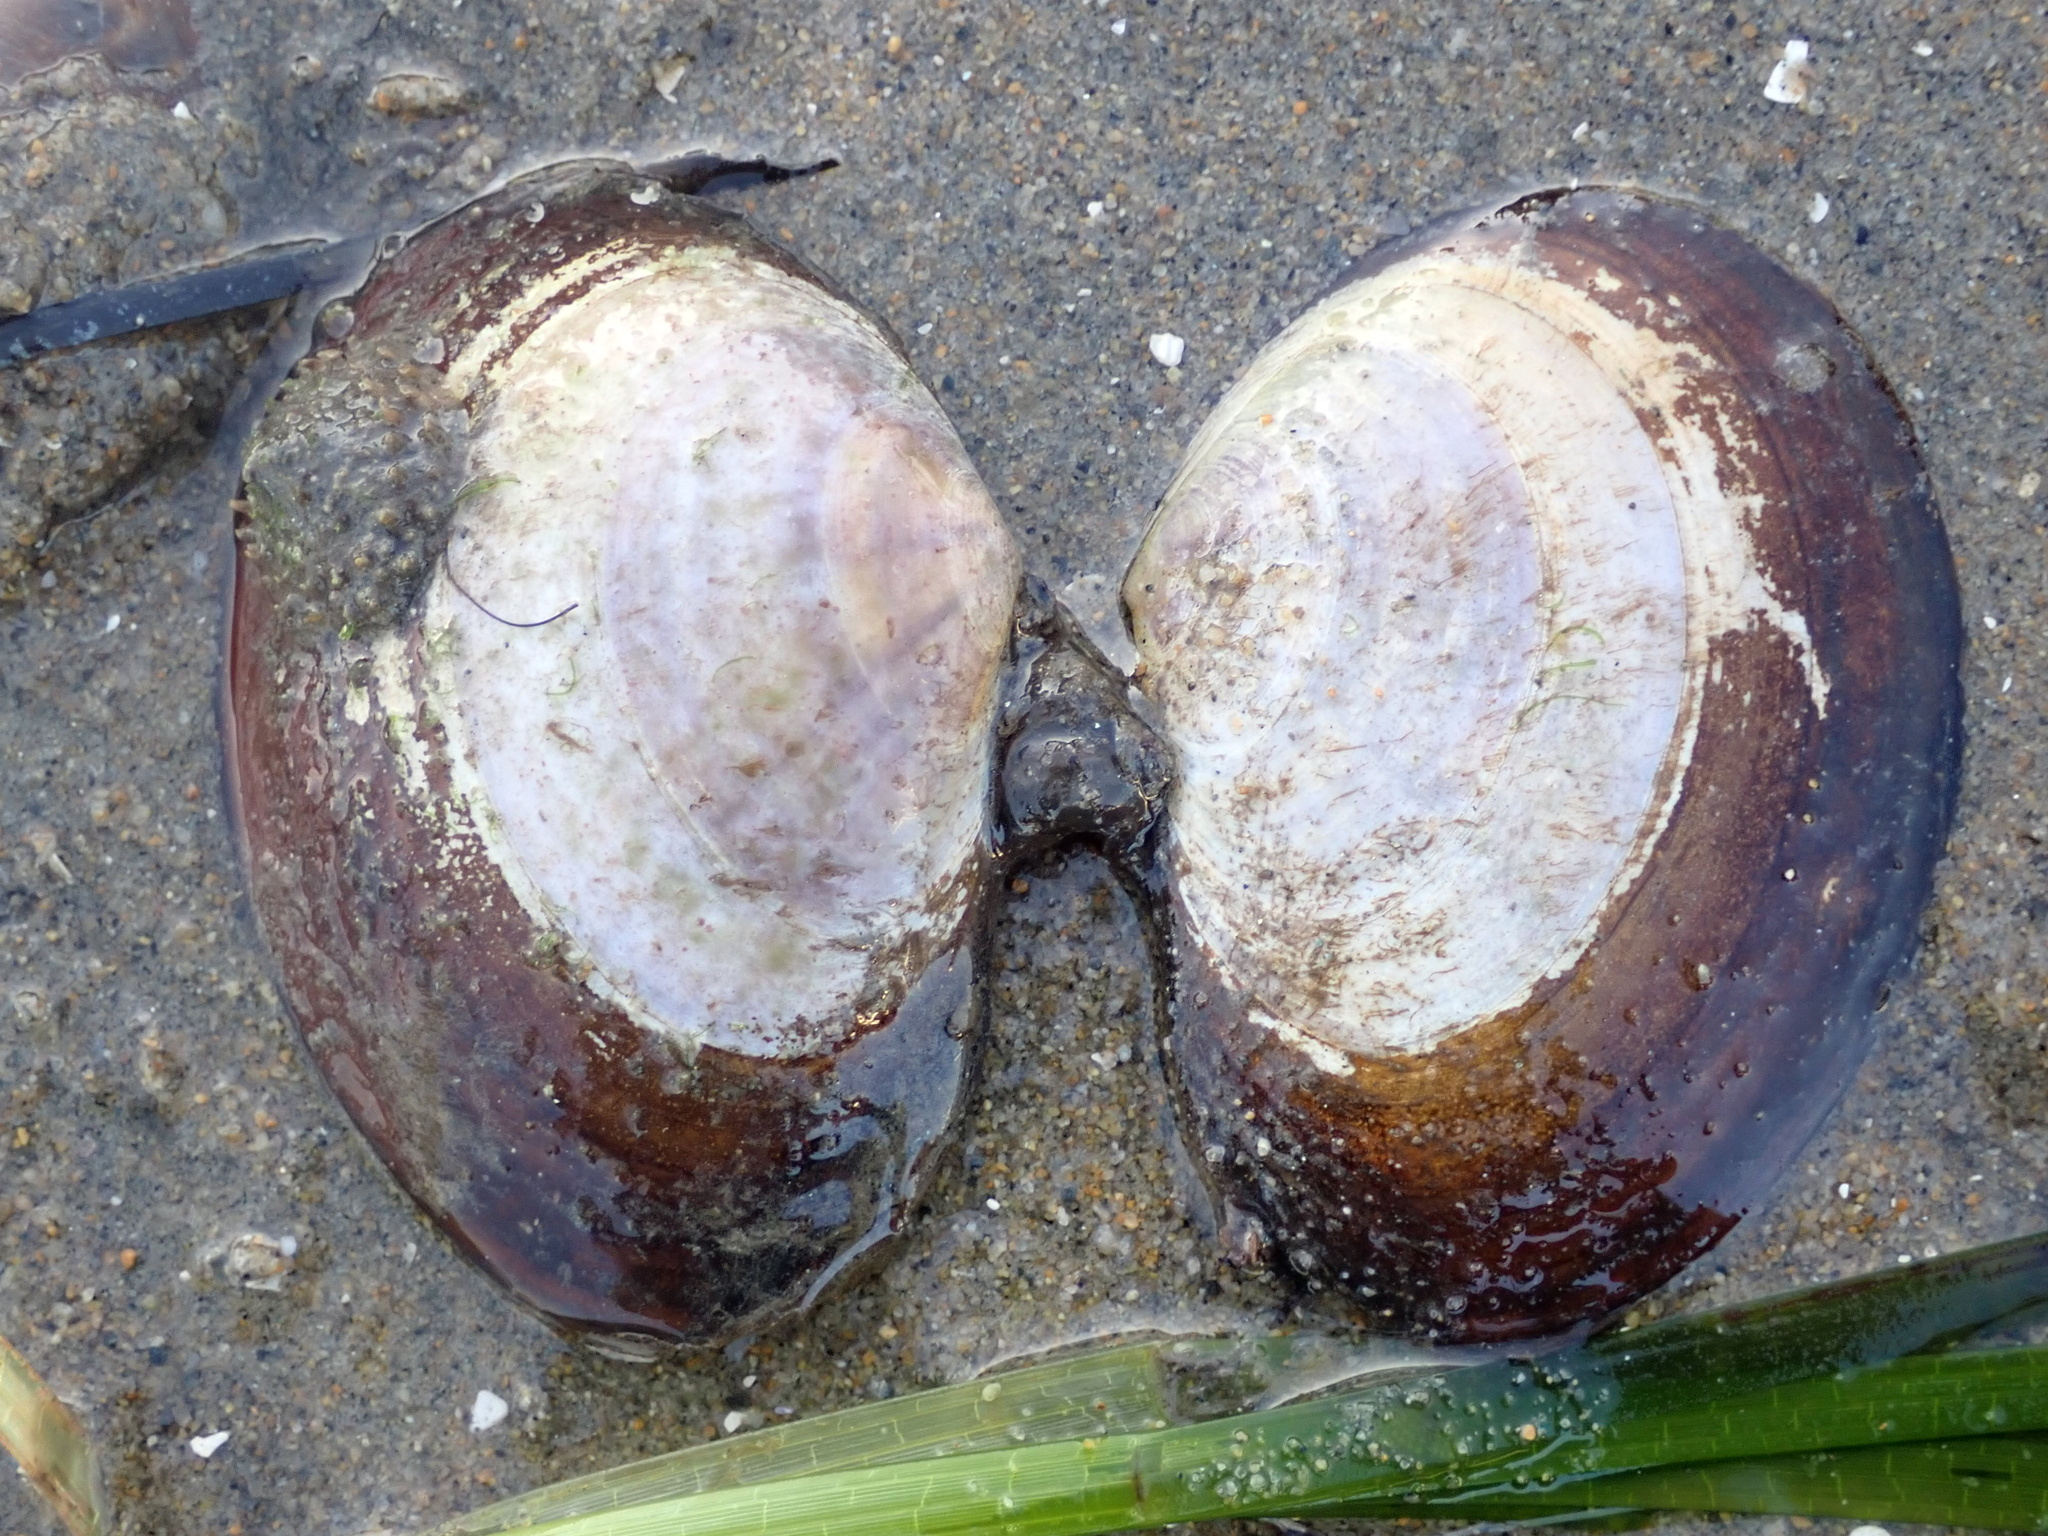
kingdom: Animalia
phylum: Mollusca
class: Bivalvia
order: Cardiida
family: Psammobiidae
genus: Nuttallia
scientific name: Nuttallia nuttallii
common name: California mahogany-clam
